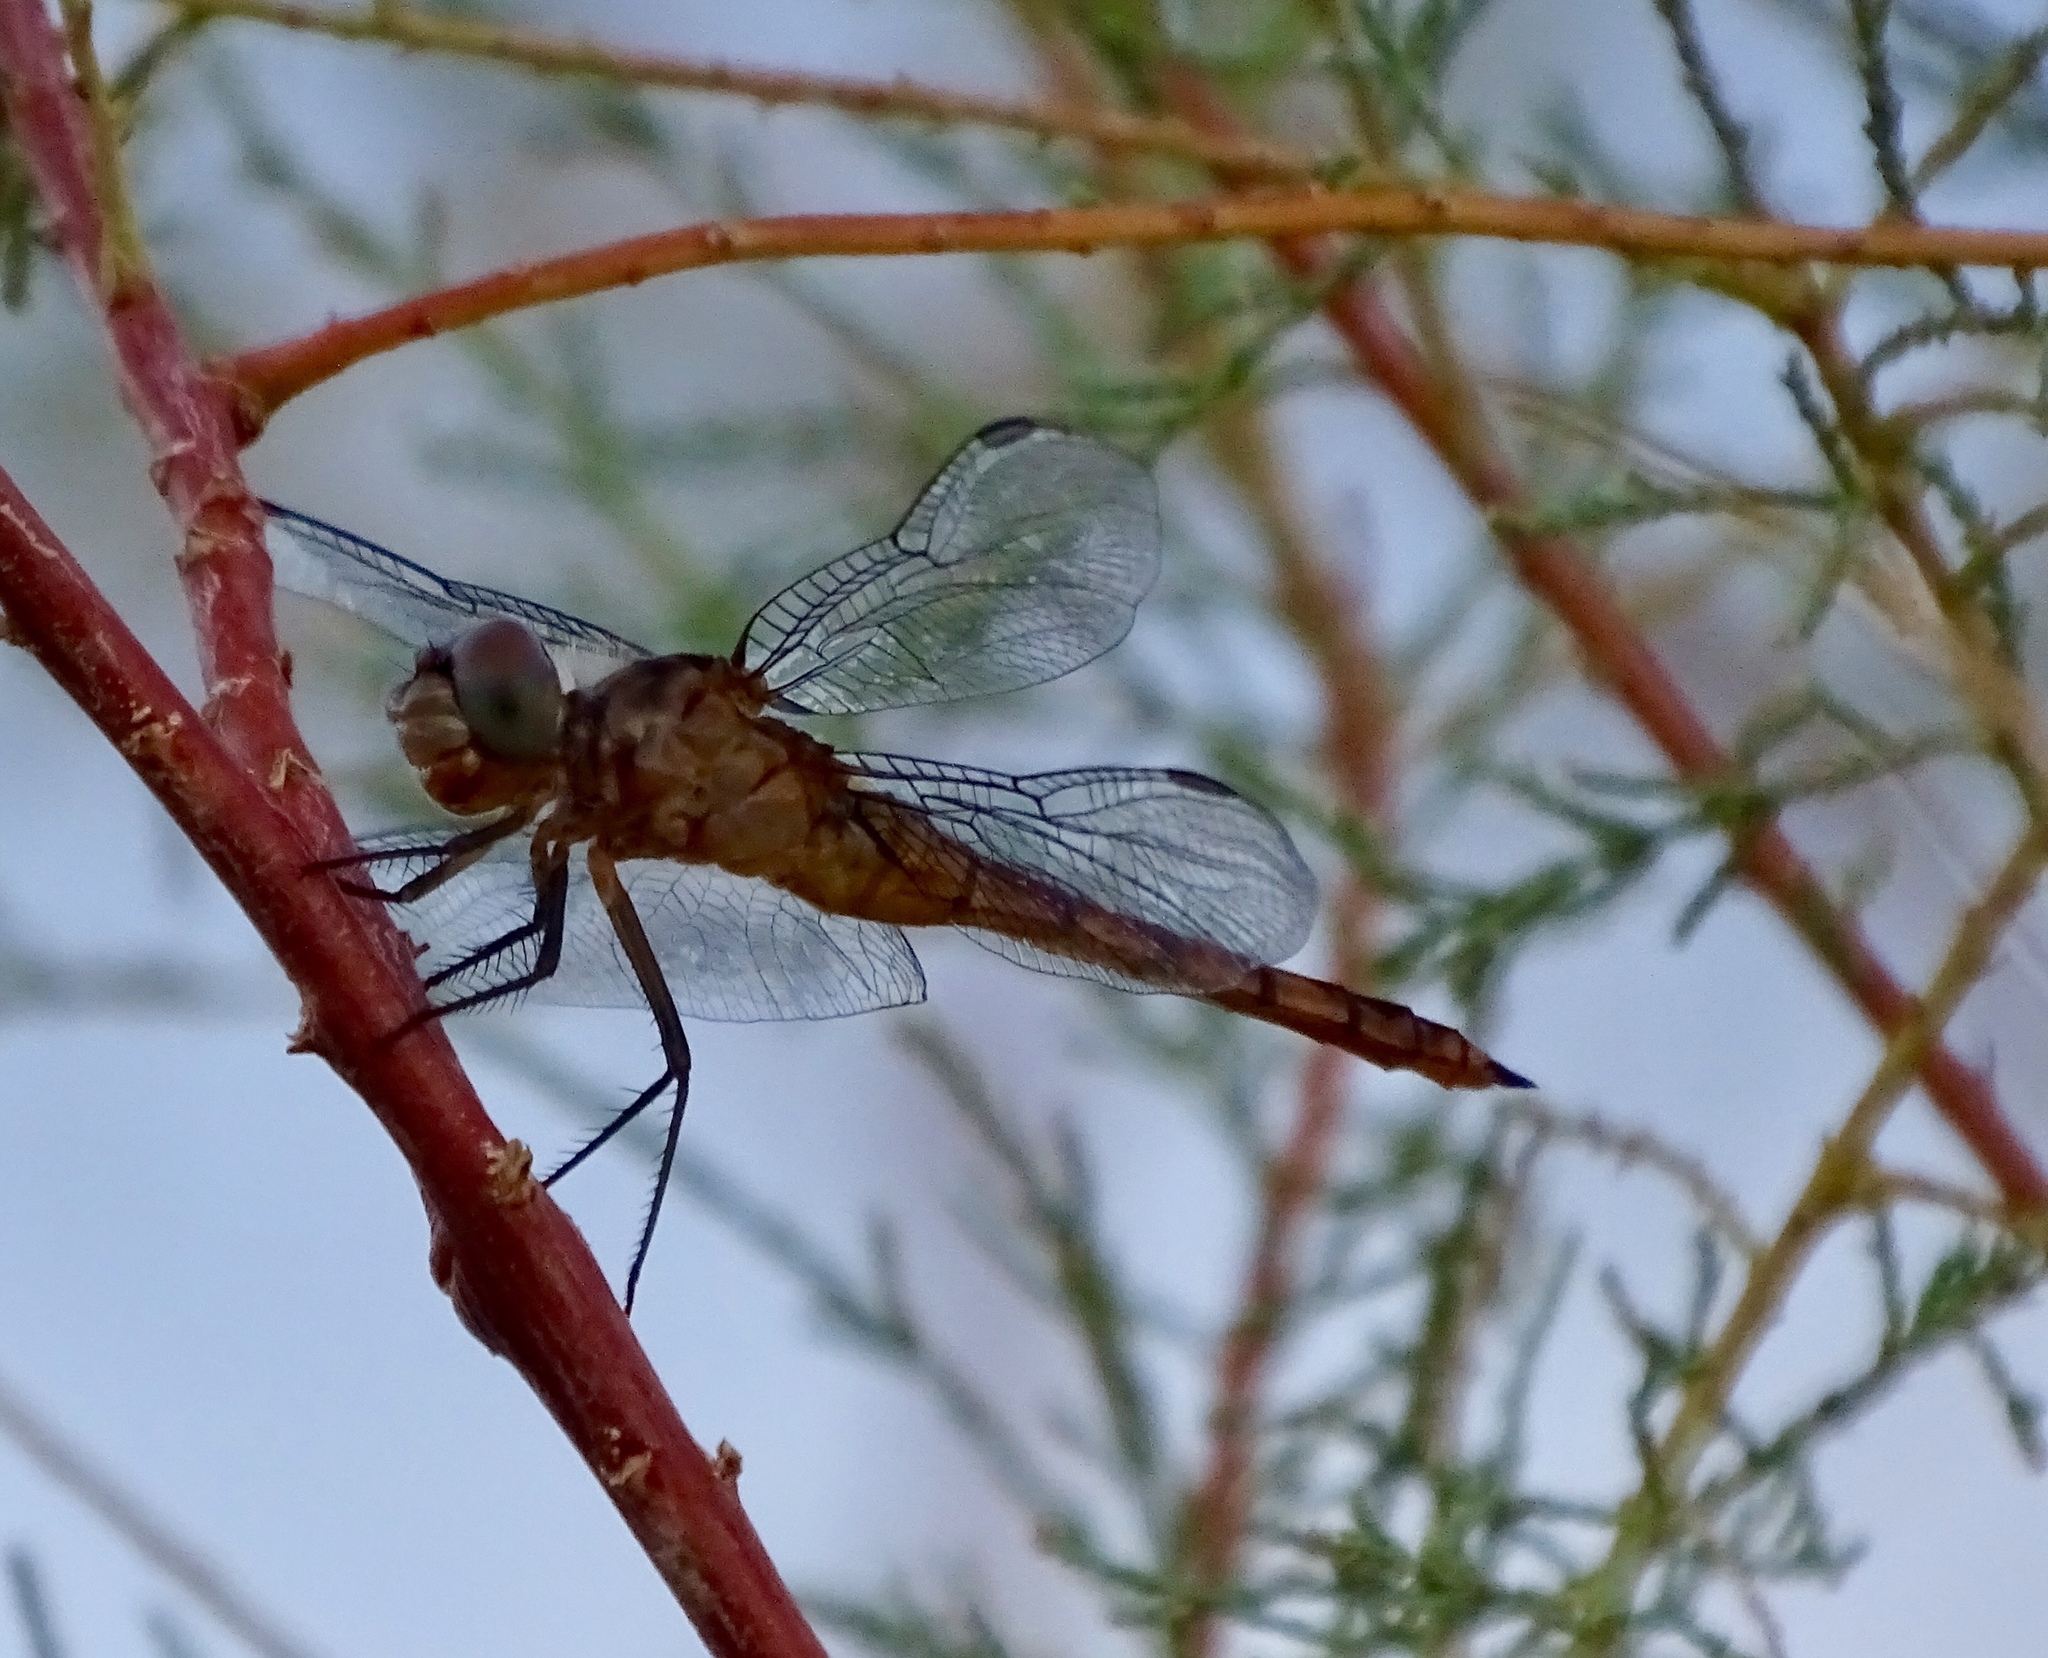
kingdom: Animalia
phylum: Arthropoda
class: Insecta
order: Odonata
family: Libellulidae
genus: Brachymesia
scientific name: Brachymesia furcata
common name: Red-taled pennant
